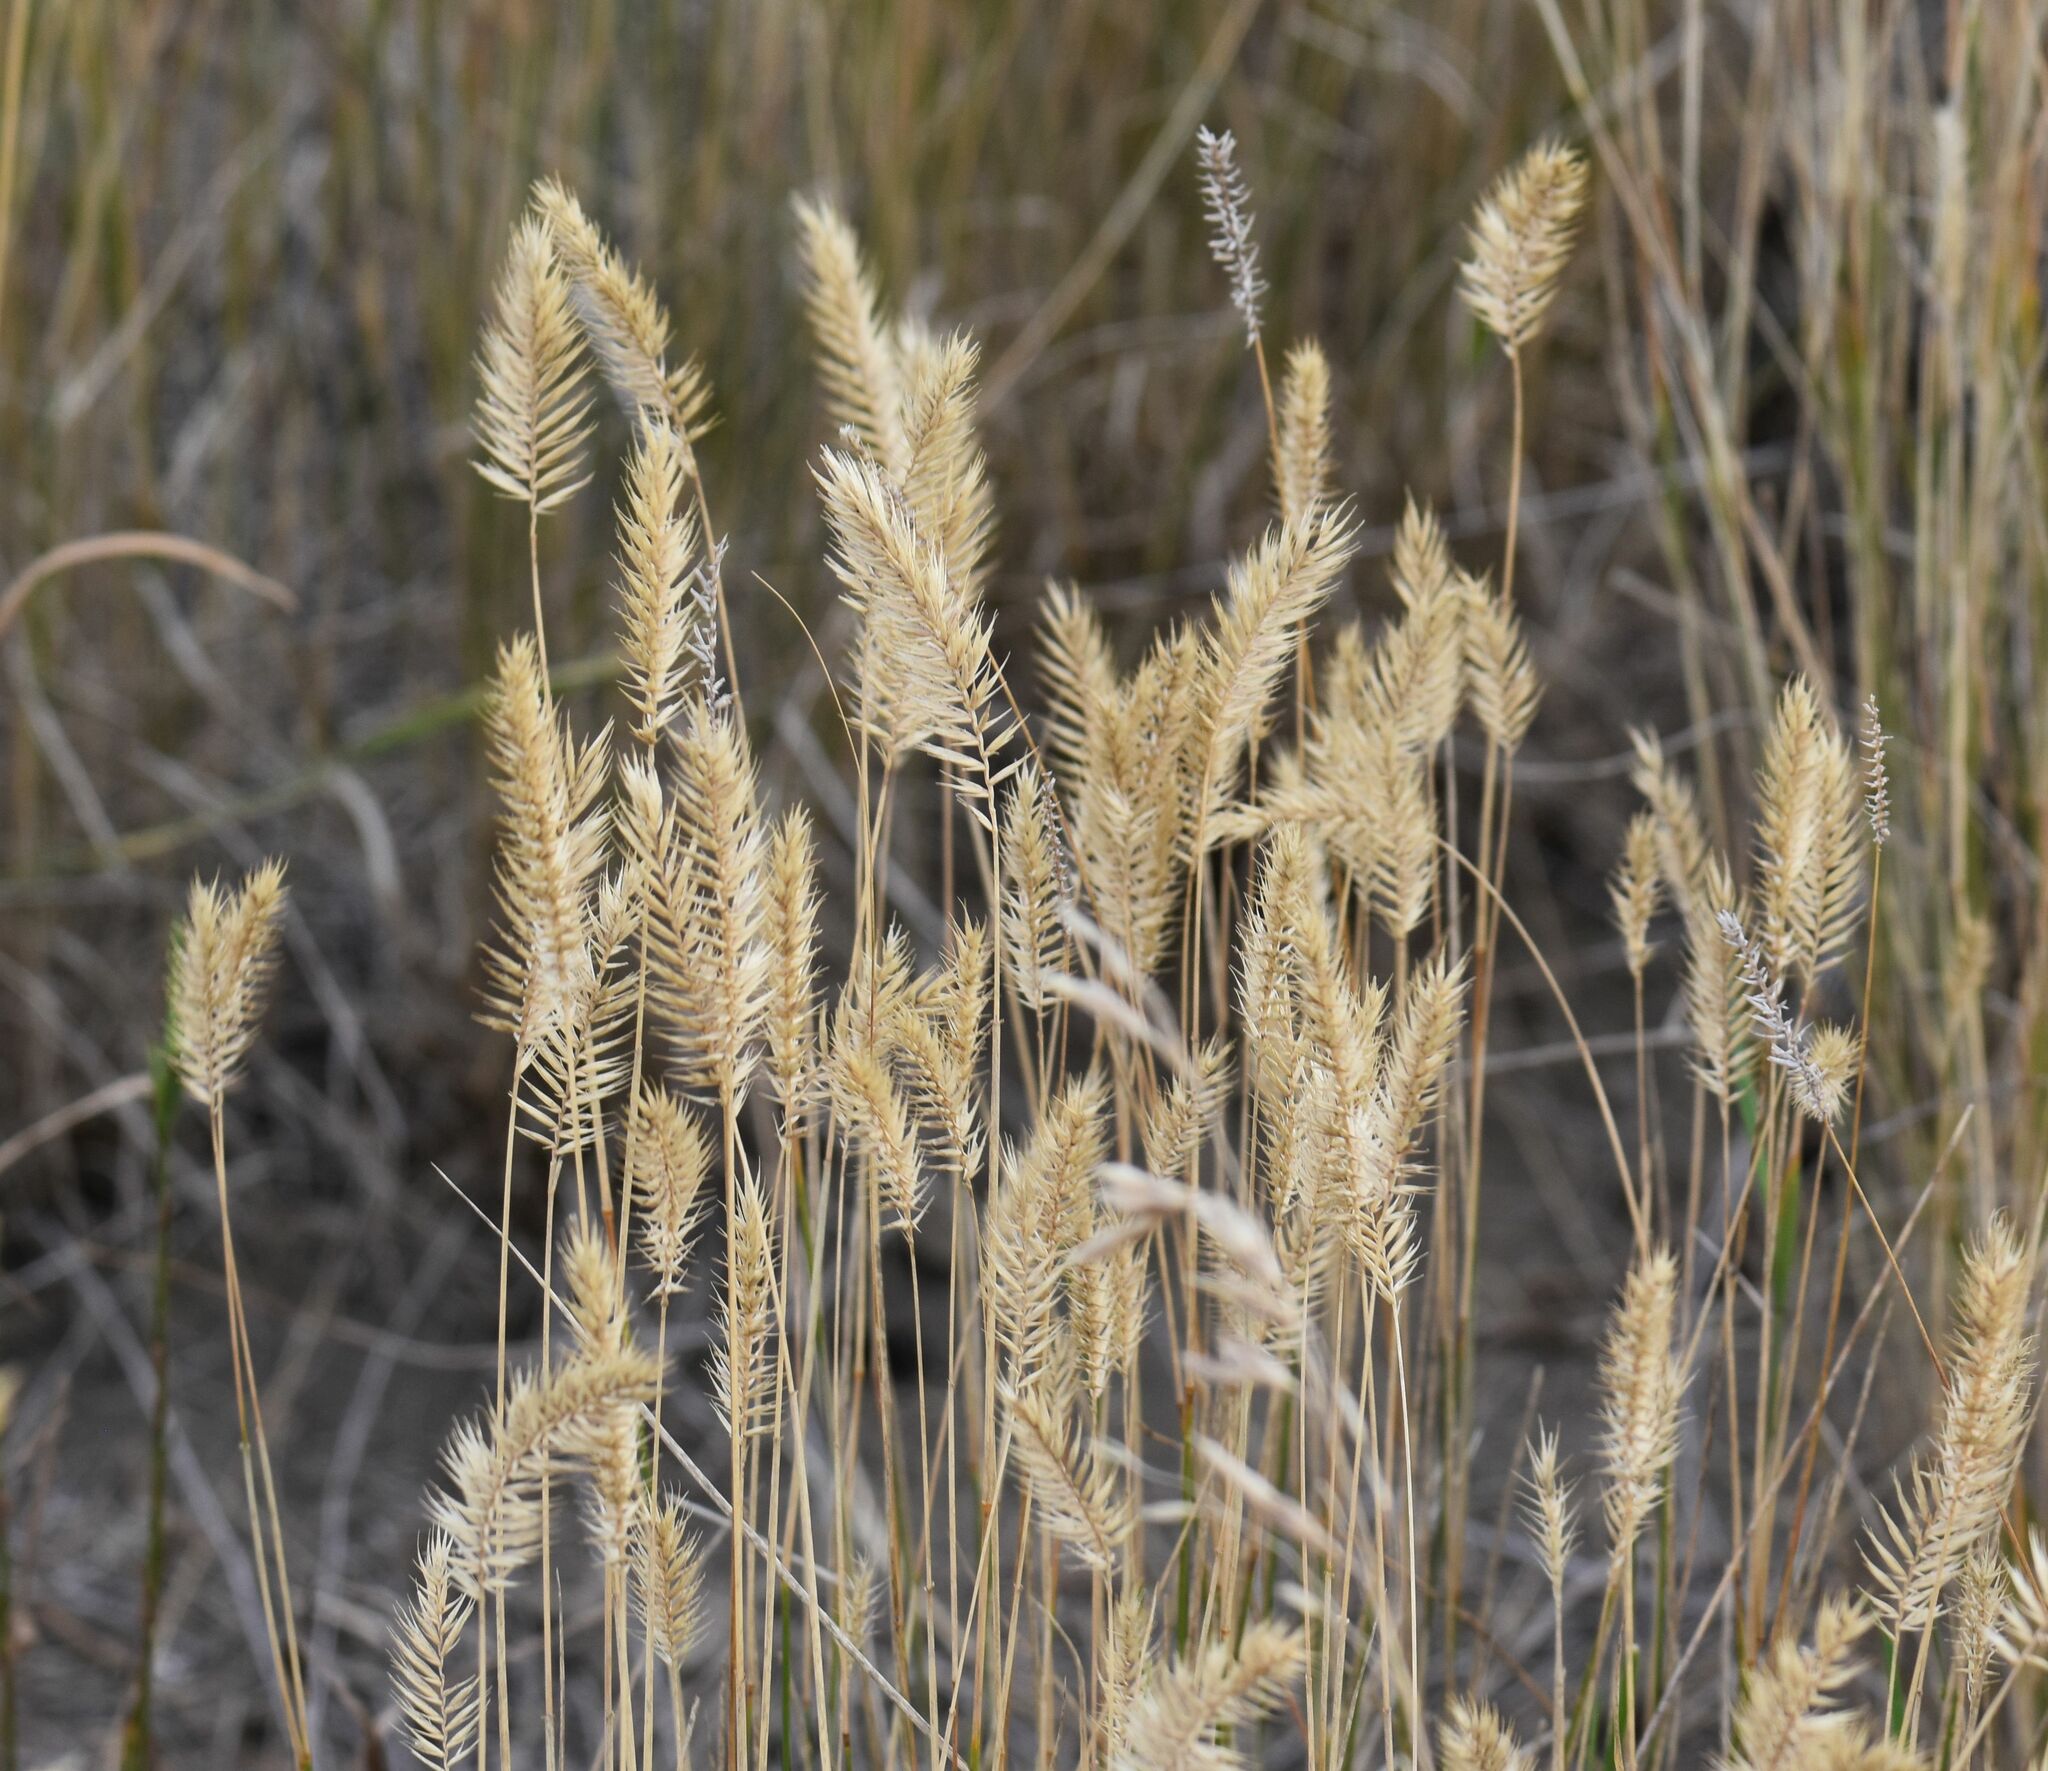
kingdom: Plantae
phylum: Tracheophyta
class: Liliopsida
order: Poales
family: Poaceae
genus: Agropyron
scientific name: Agropyron cristatum
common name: Crested wheatgrass
